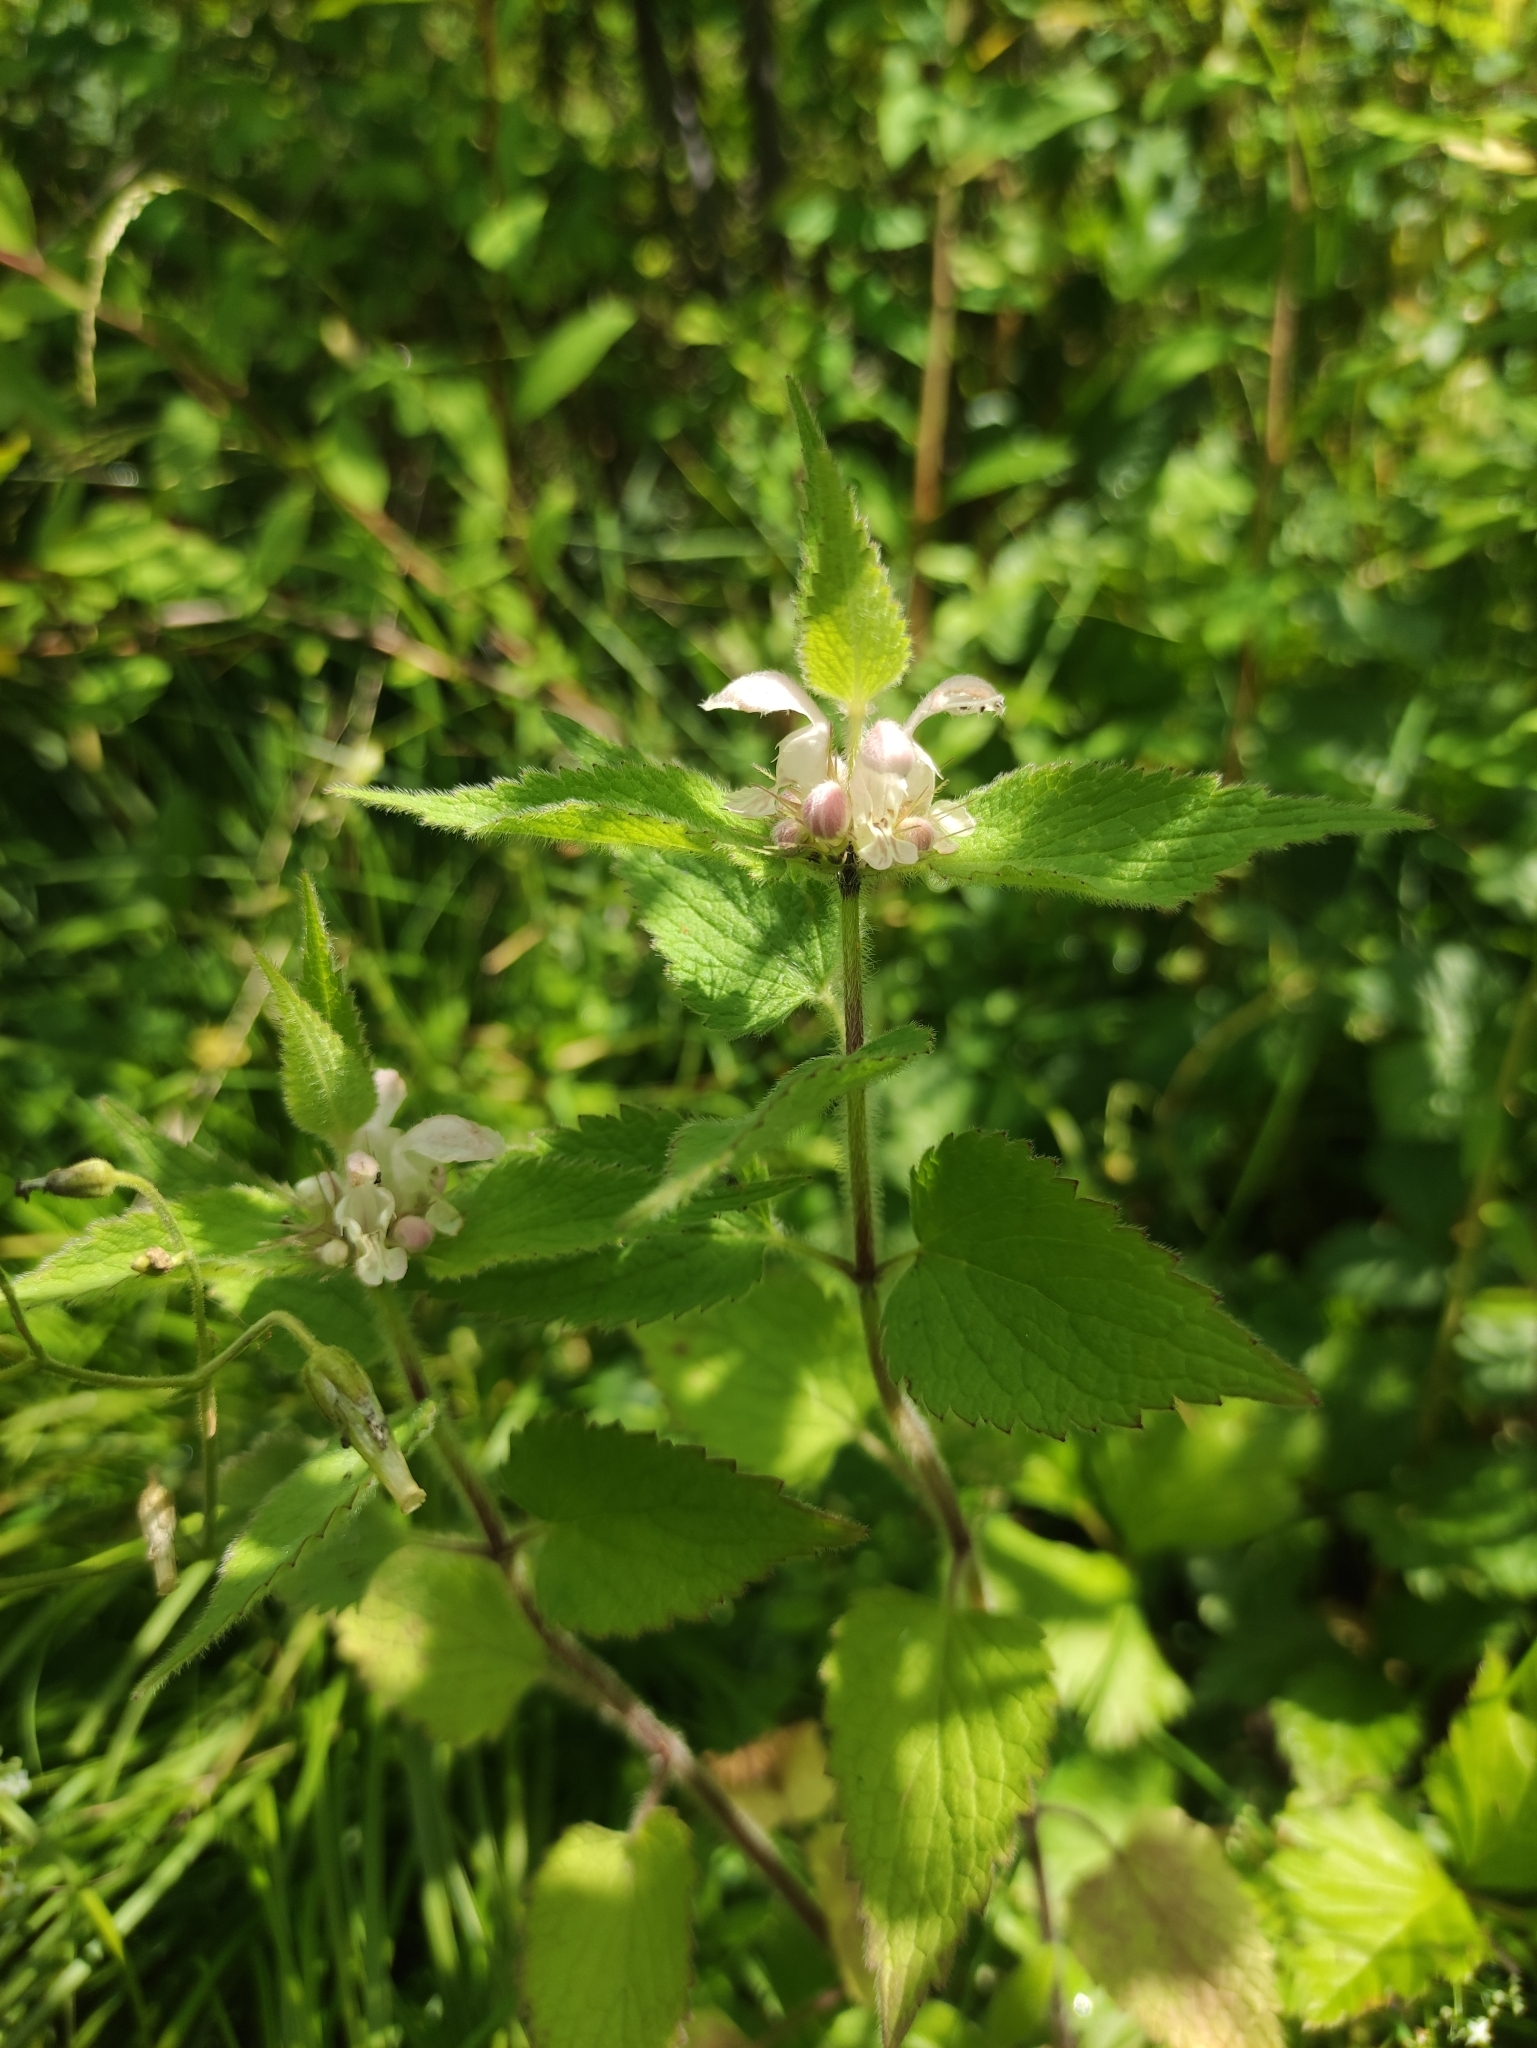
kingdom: Plantae
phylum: Tracheophyta
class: Magnoliopsida
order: Lamiales
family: Lamiaceae
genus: Lamium
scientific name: Lamium album
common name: White dead-nettle
